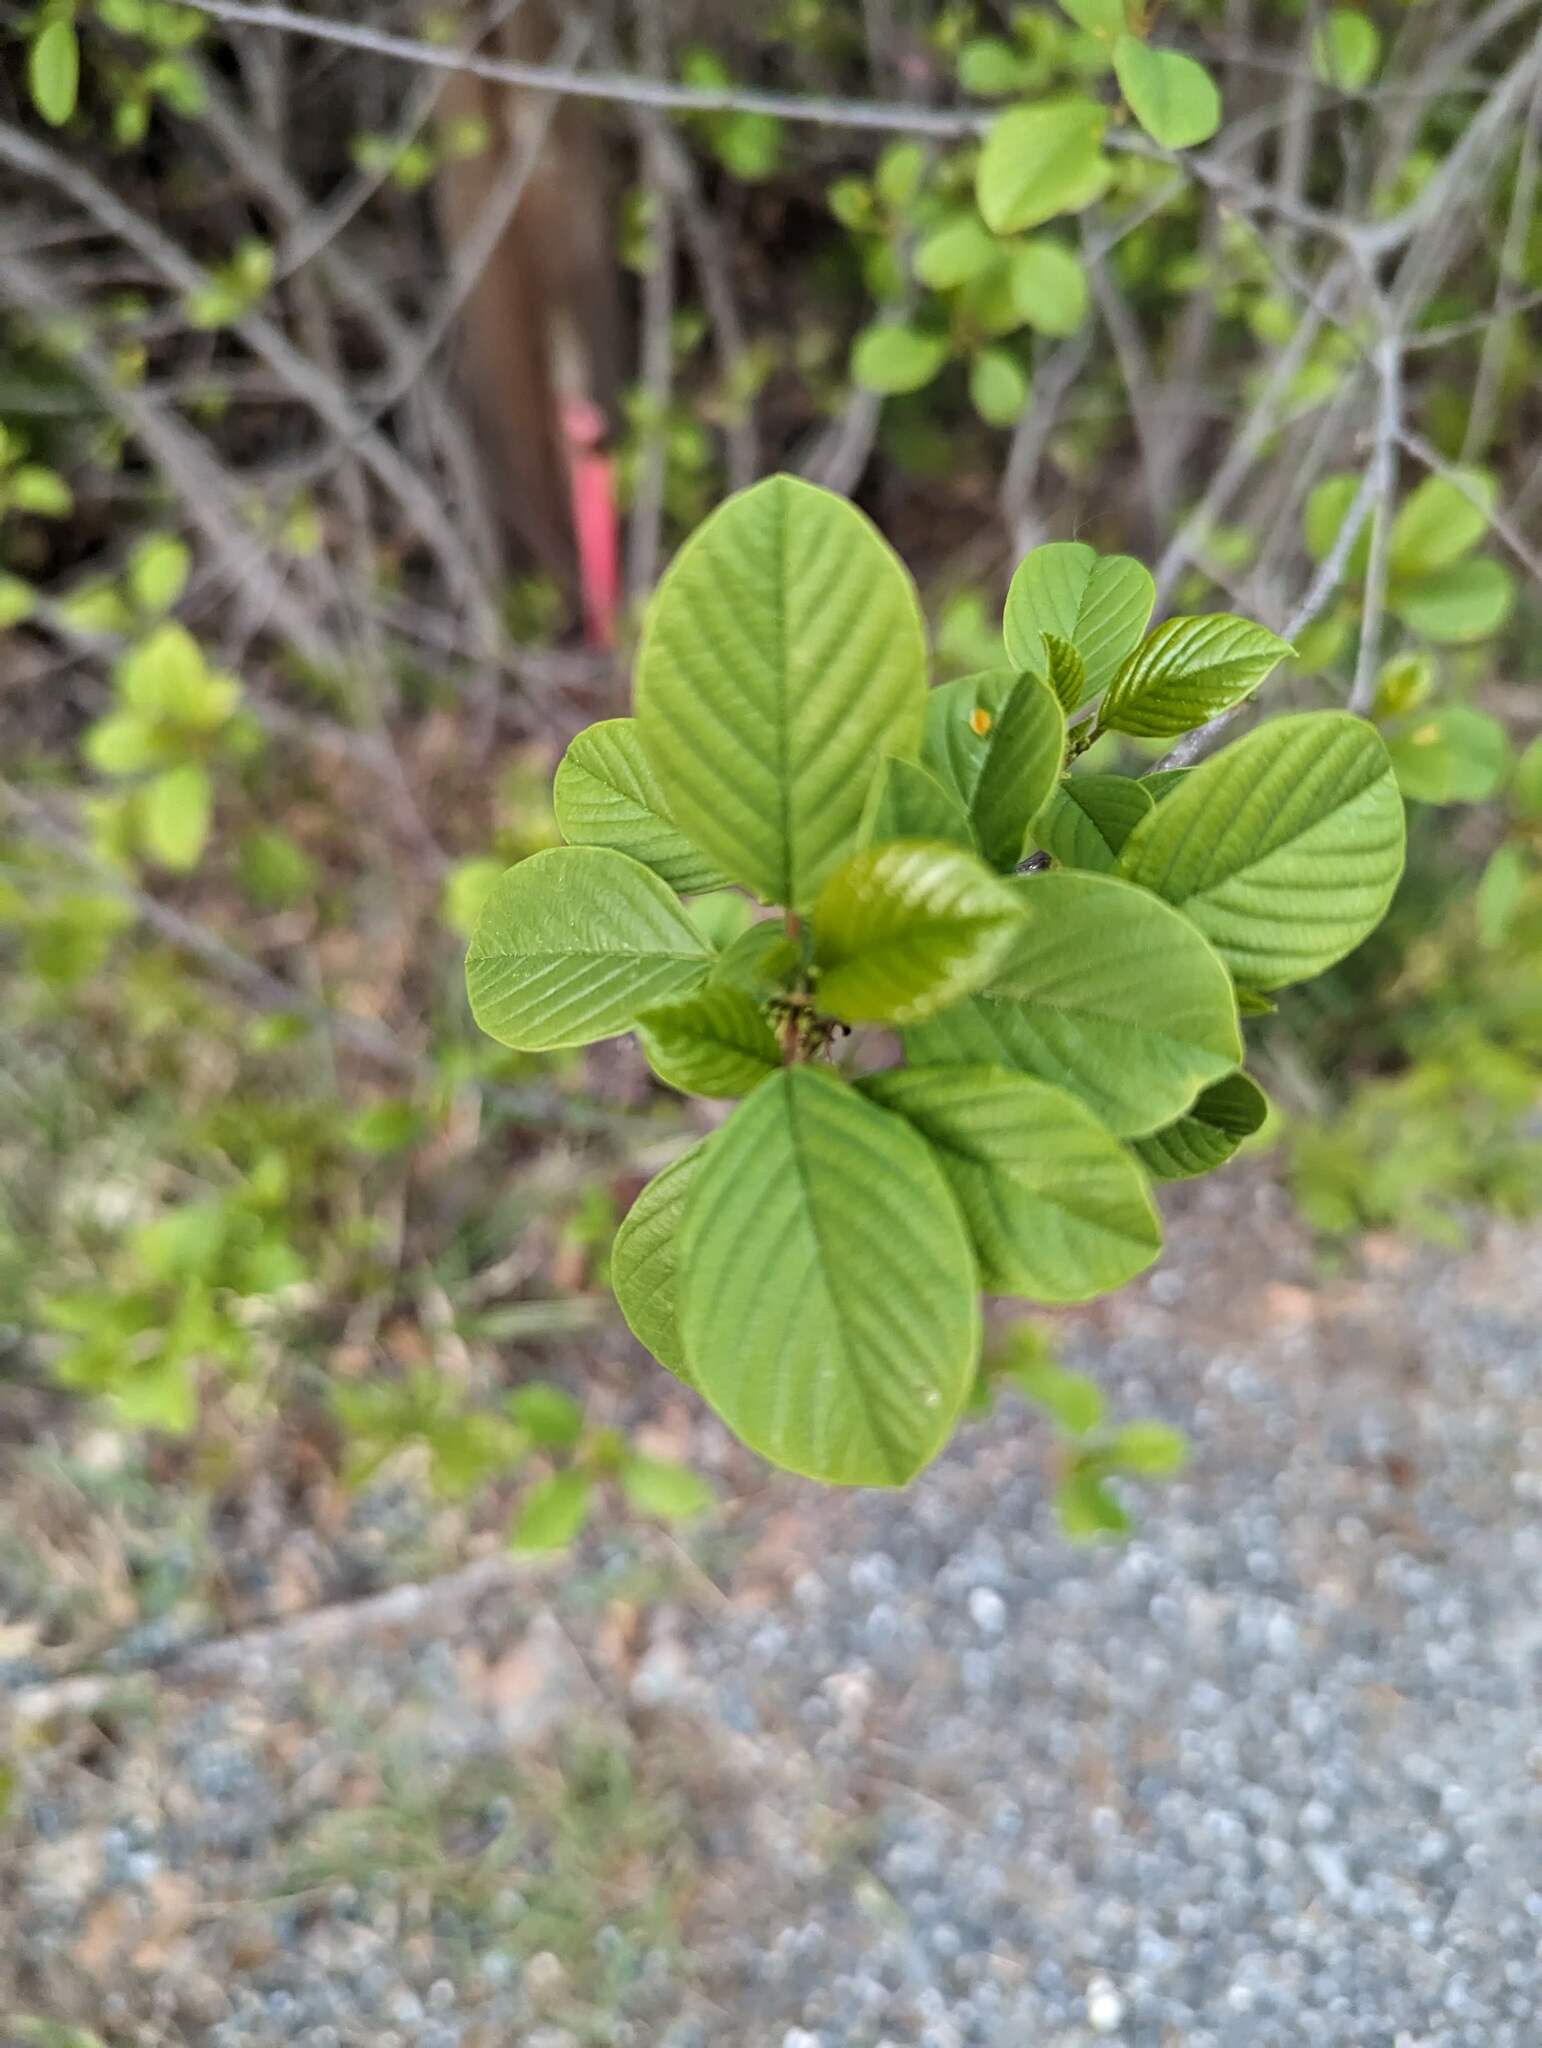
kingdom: Plantae
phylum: Tracheophyta
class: Magnoliopsida
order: Rosales
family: Rhamnaceae
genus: Frangula
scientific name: Frangula alnus
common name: Alder buckthorn
